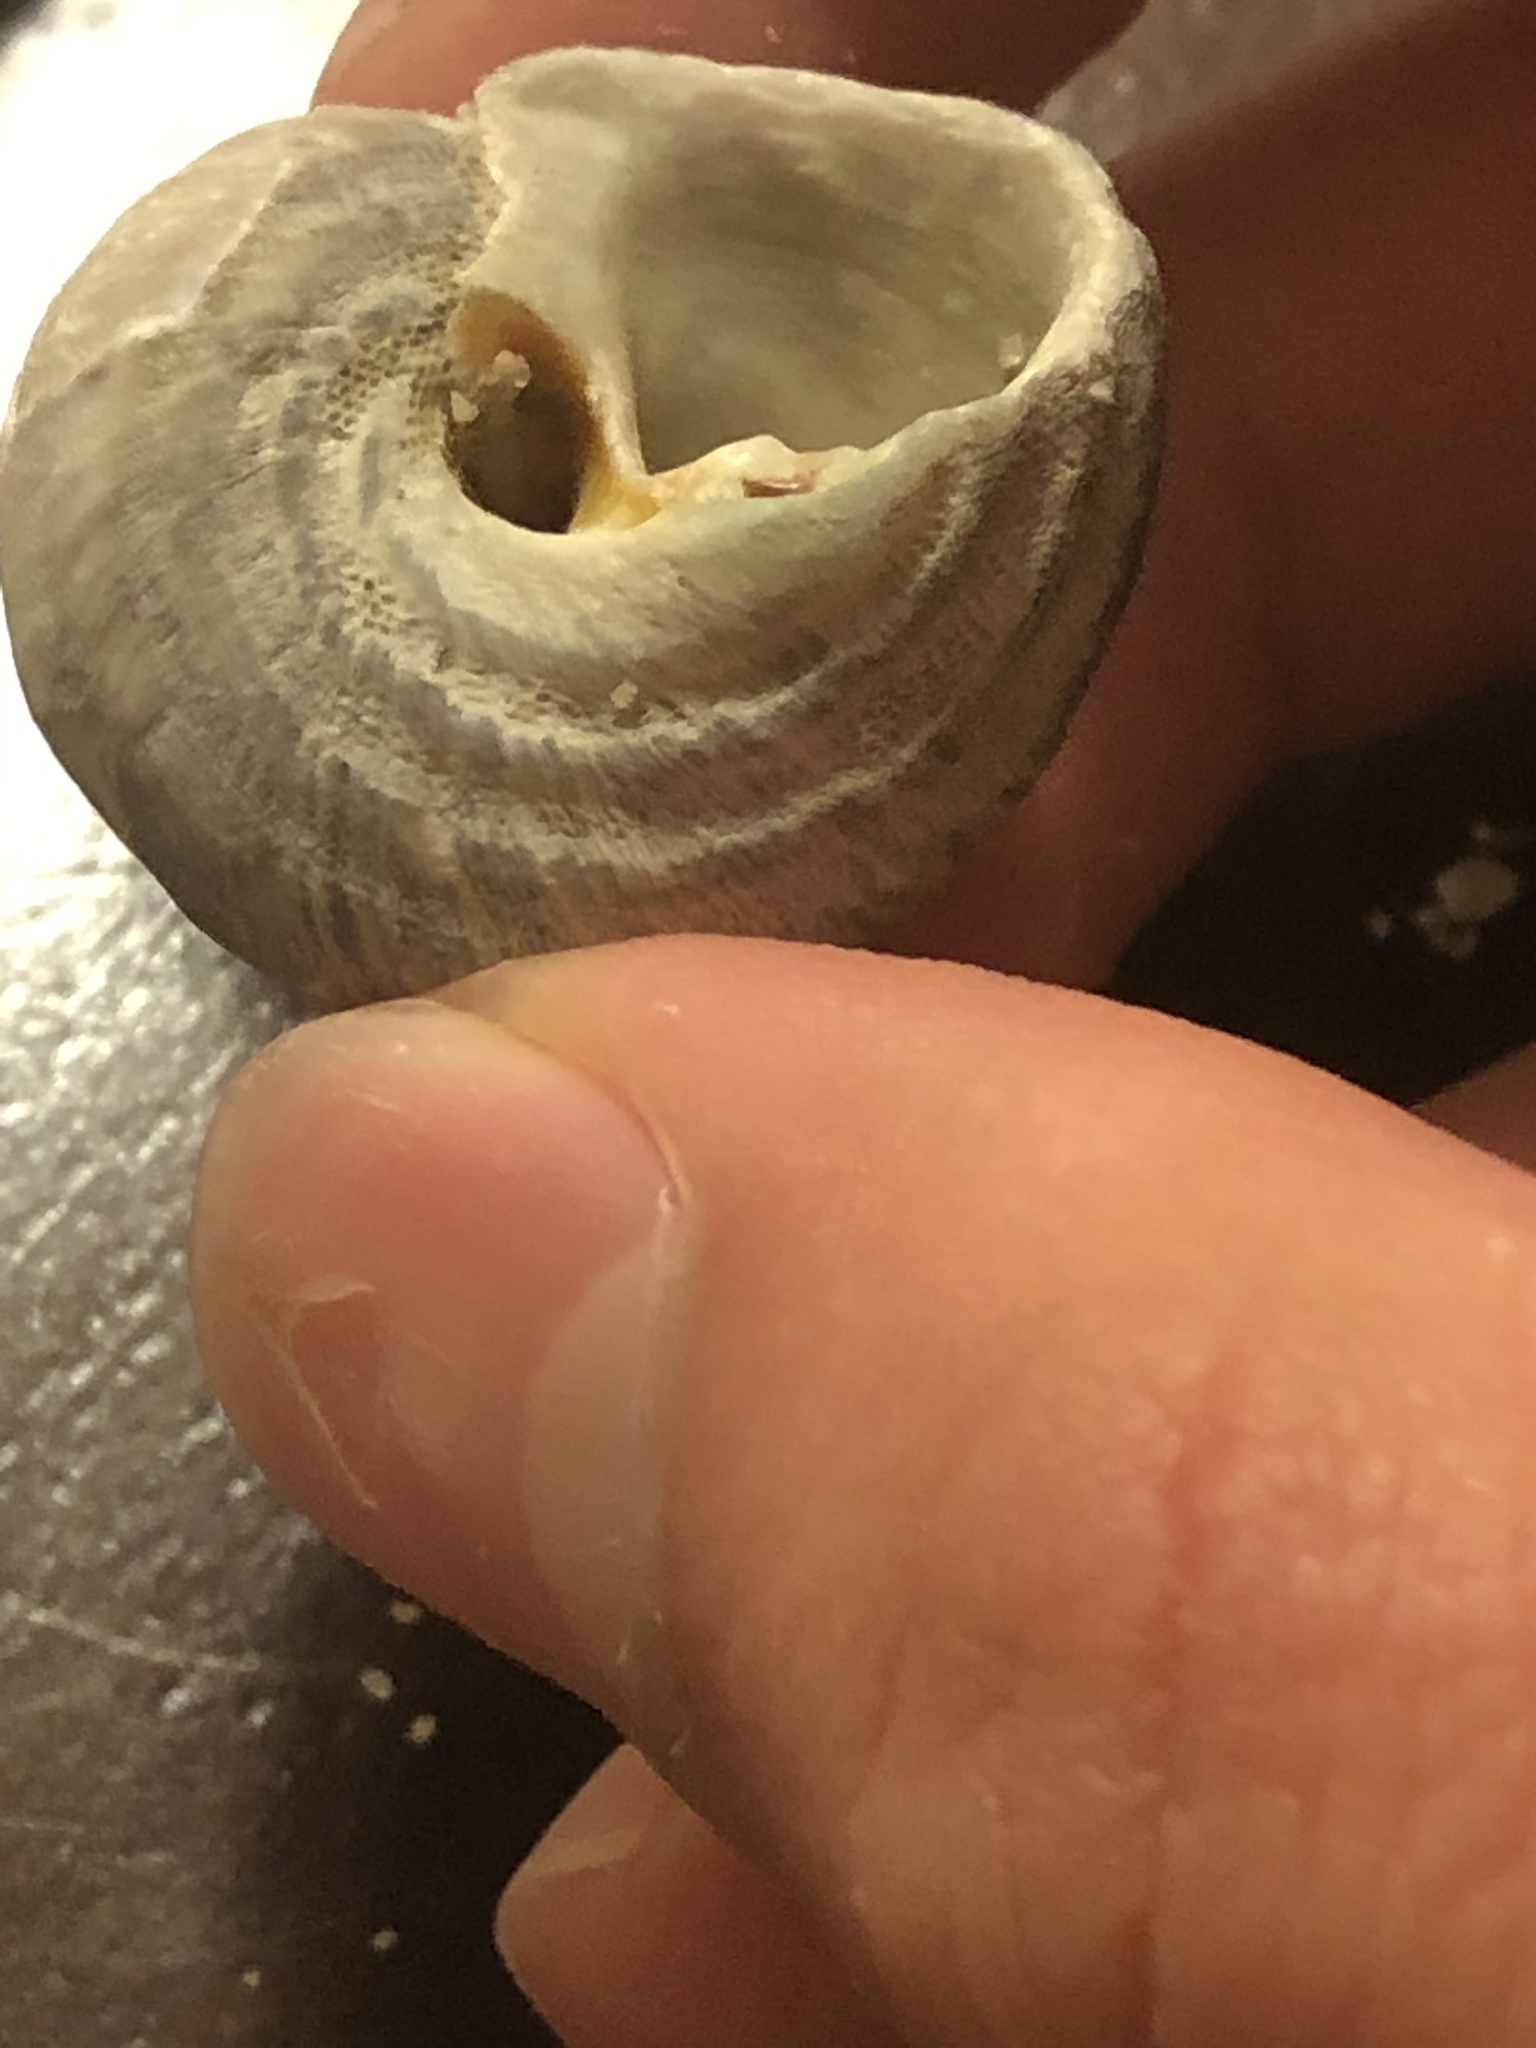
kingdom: Animalia
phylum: Mollusca
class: Gastropoda
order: Trochida
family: Tegulidae
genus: Tegula
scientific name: Tegula aureotincta
